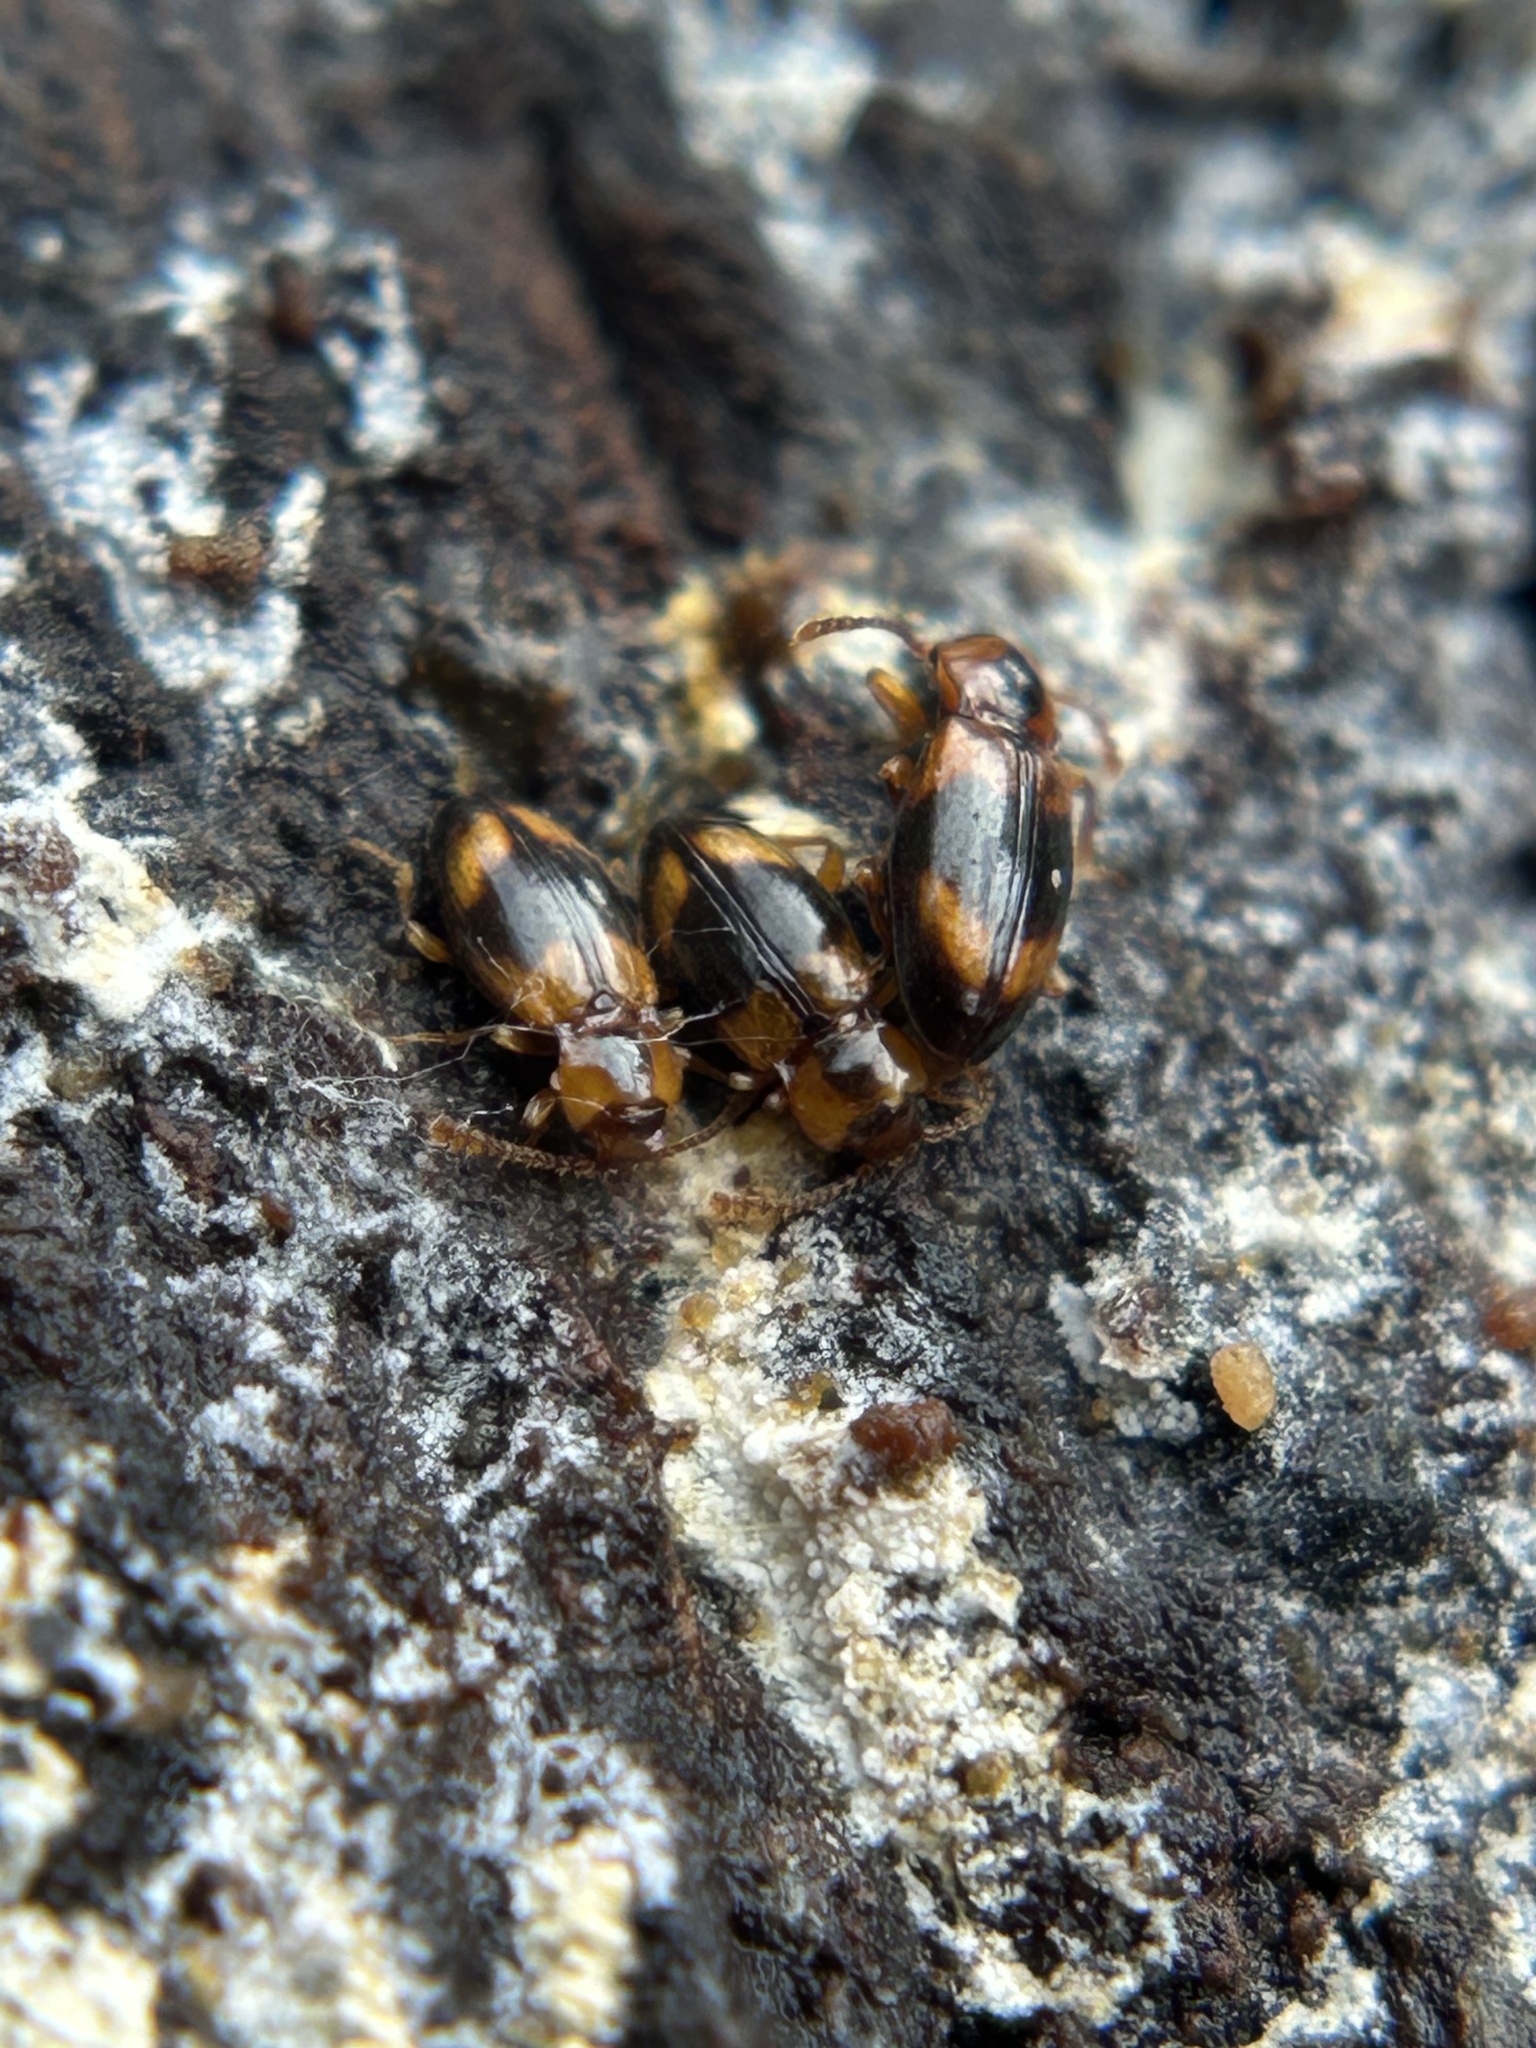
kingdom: Animalia
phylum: Arthropoda
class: Insecta
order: Coleoptera
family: Endomychidae
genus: Phymaphora
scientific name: Phymaphora californica
